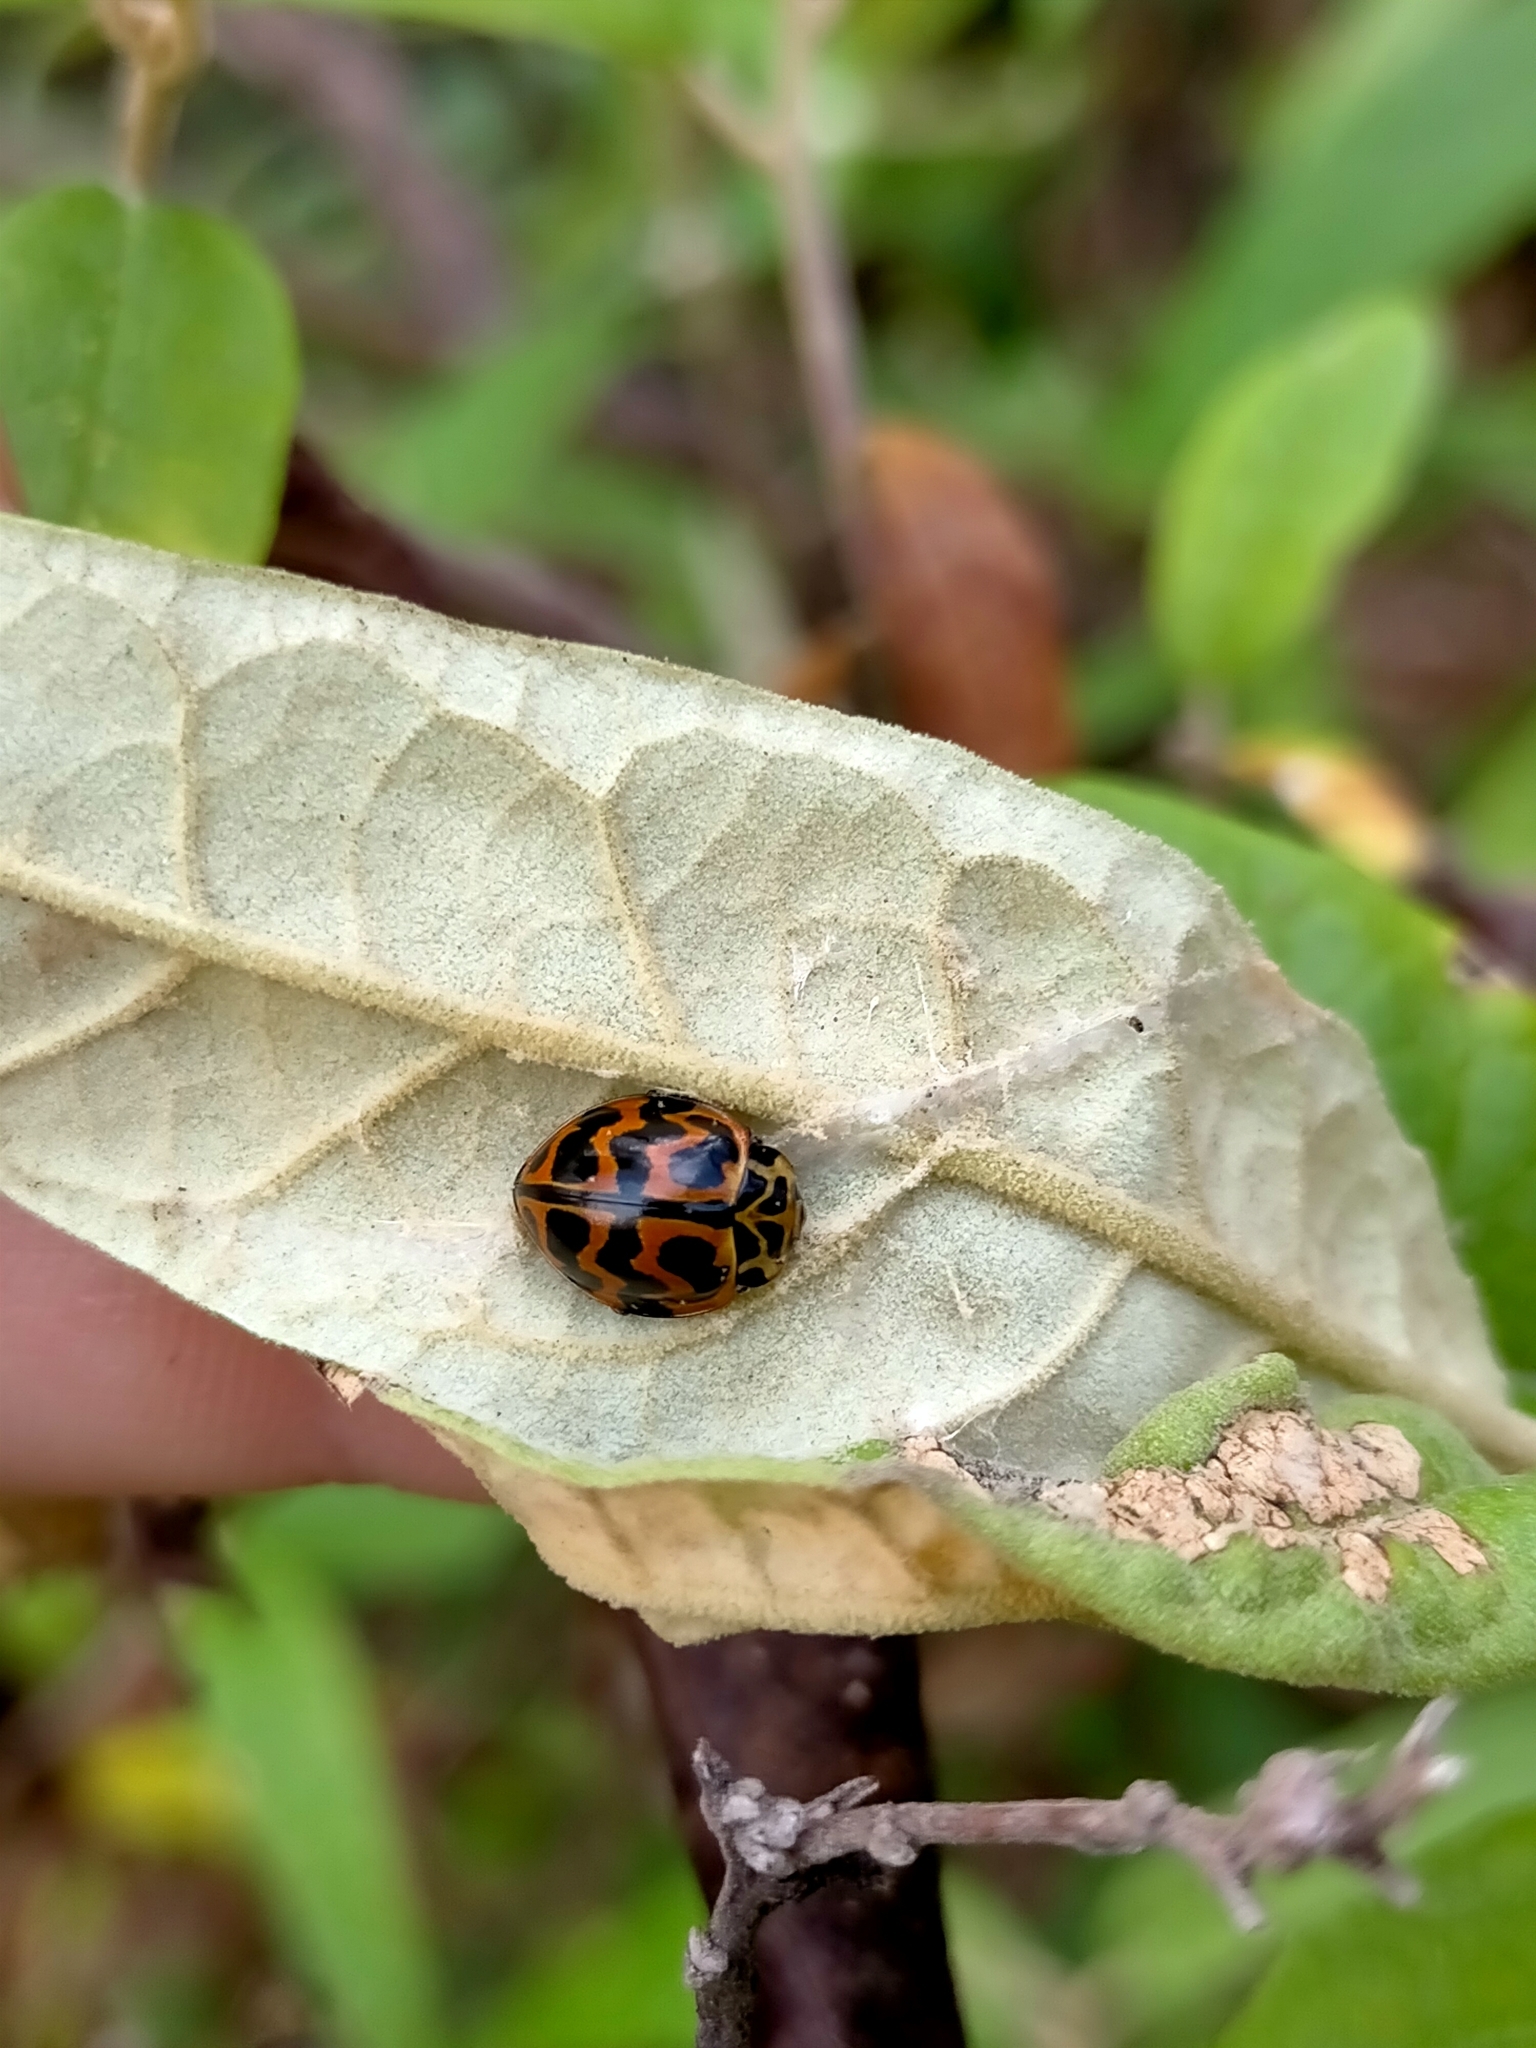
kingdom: Animalia
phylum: Arthropoda
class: Insecta
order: Coleoptera
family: Coccinellidae
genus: Cleobora
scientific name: Cleobora
